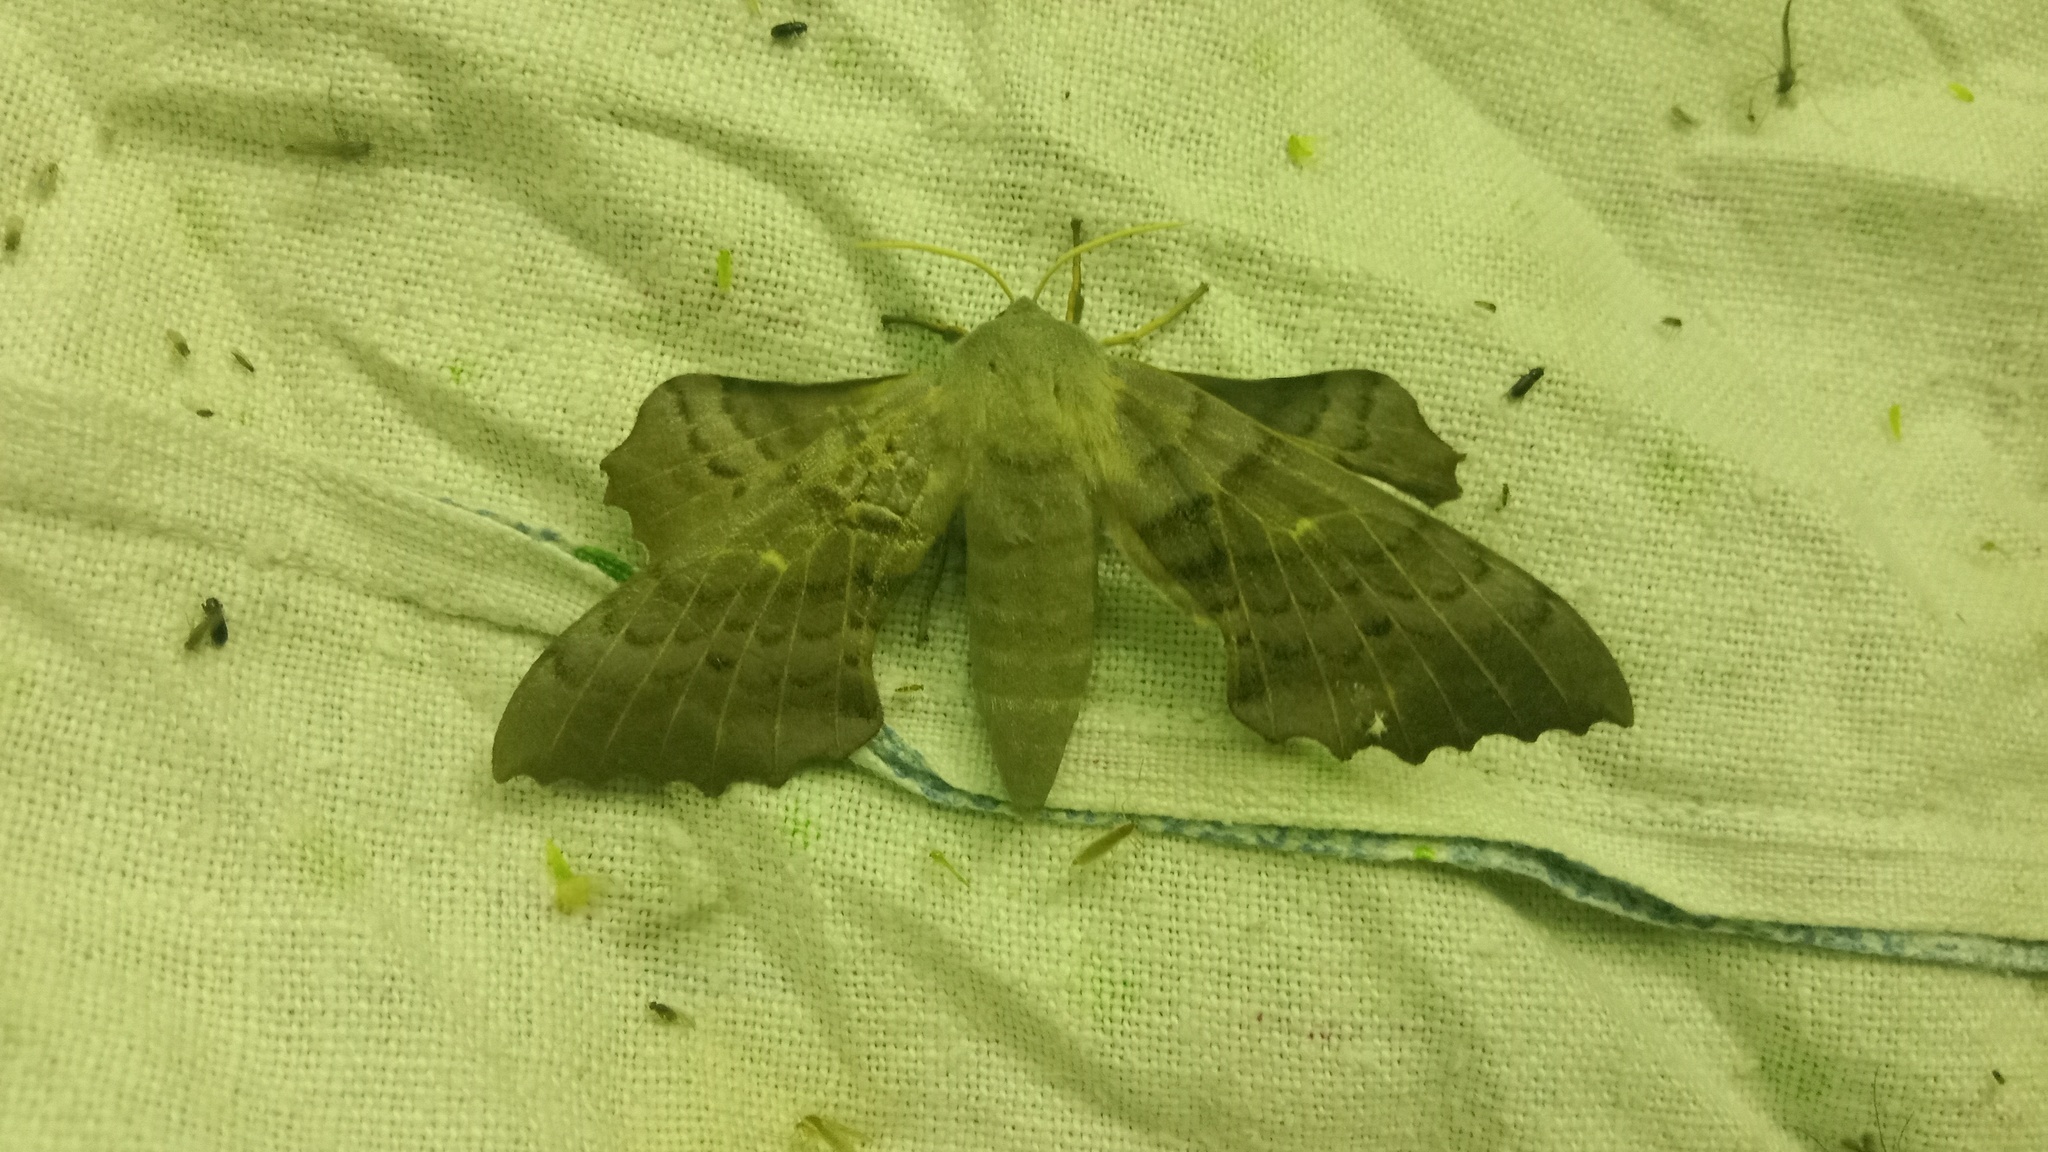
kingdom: Animalia
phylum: Arthropoda
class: Insecta
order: Lepidoptera
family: Sphingidae
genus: Laothoe
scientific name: Laothoe populi
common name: Poplar hawk-moth
